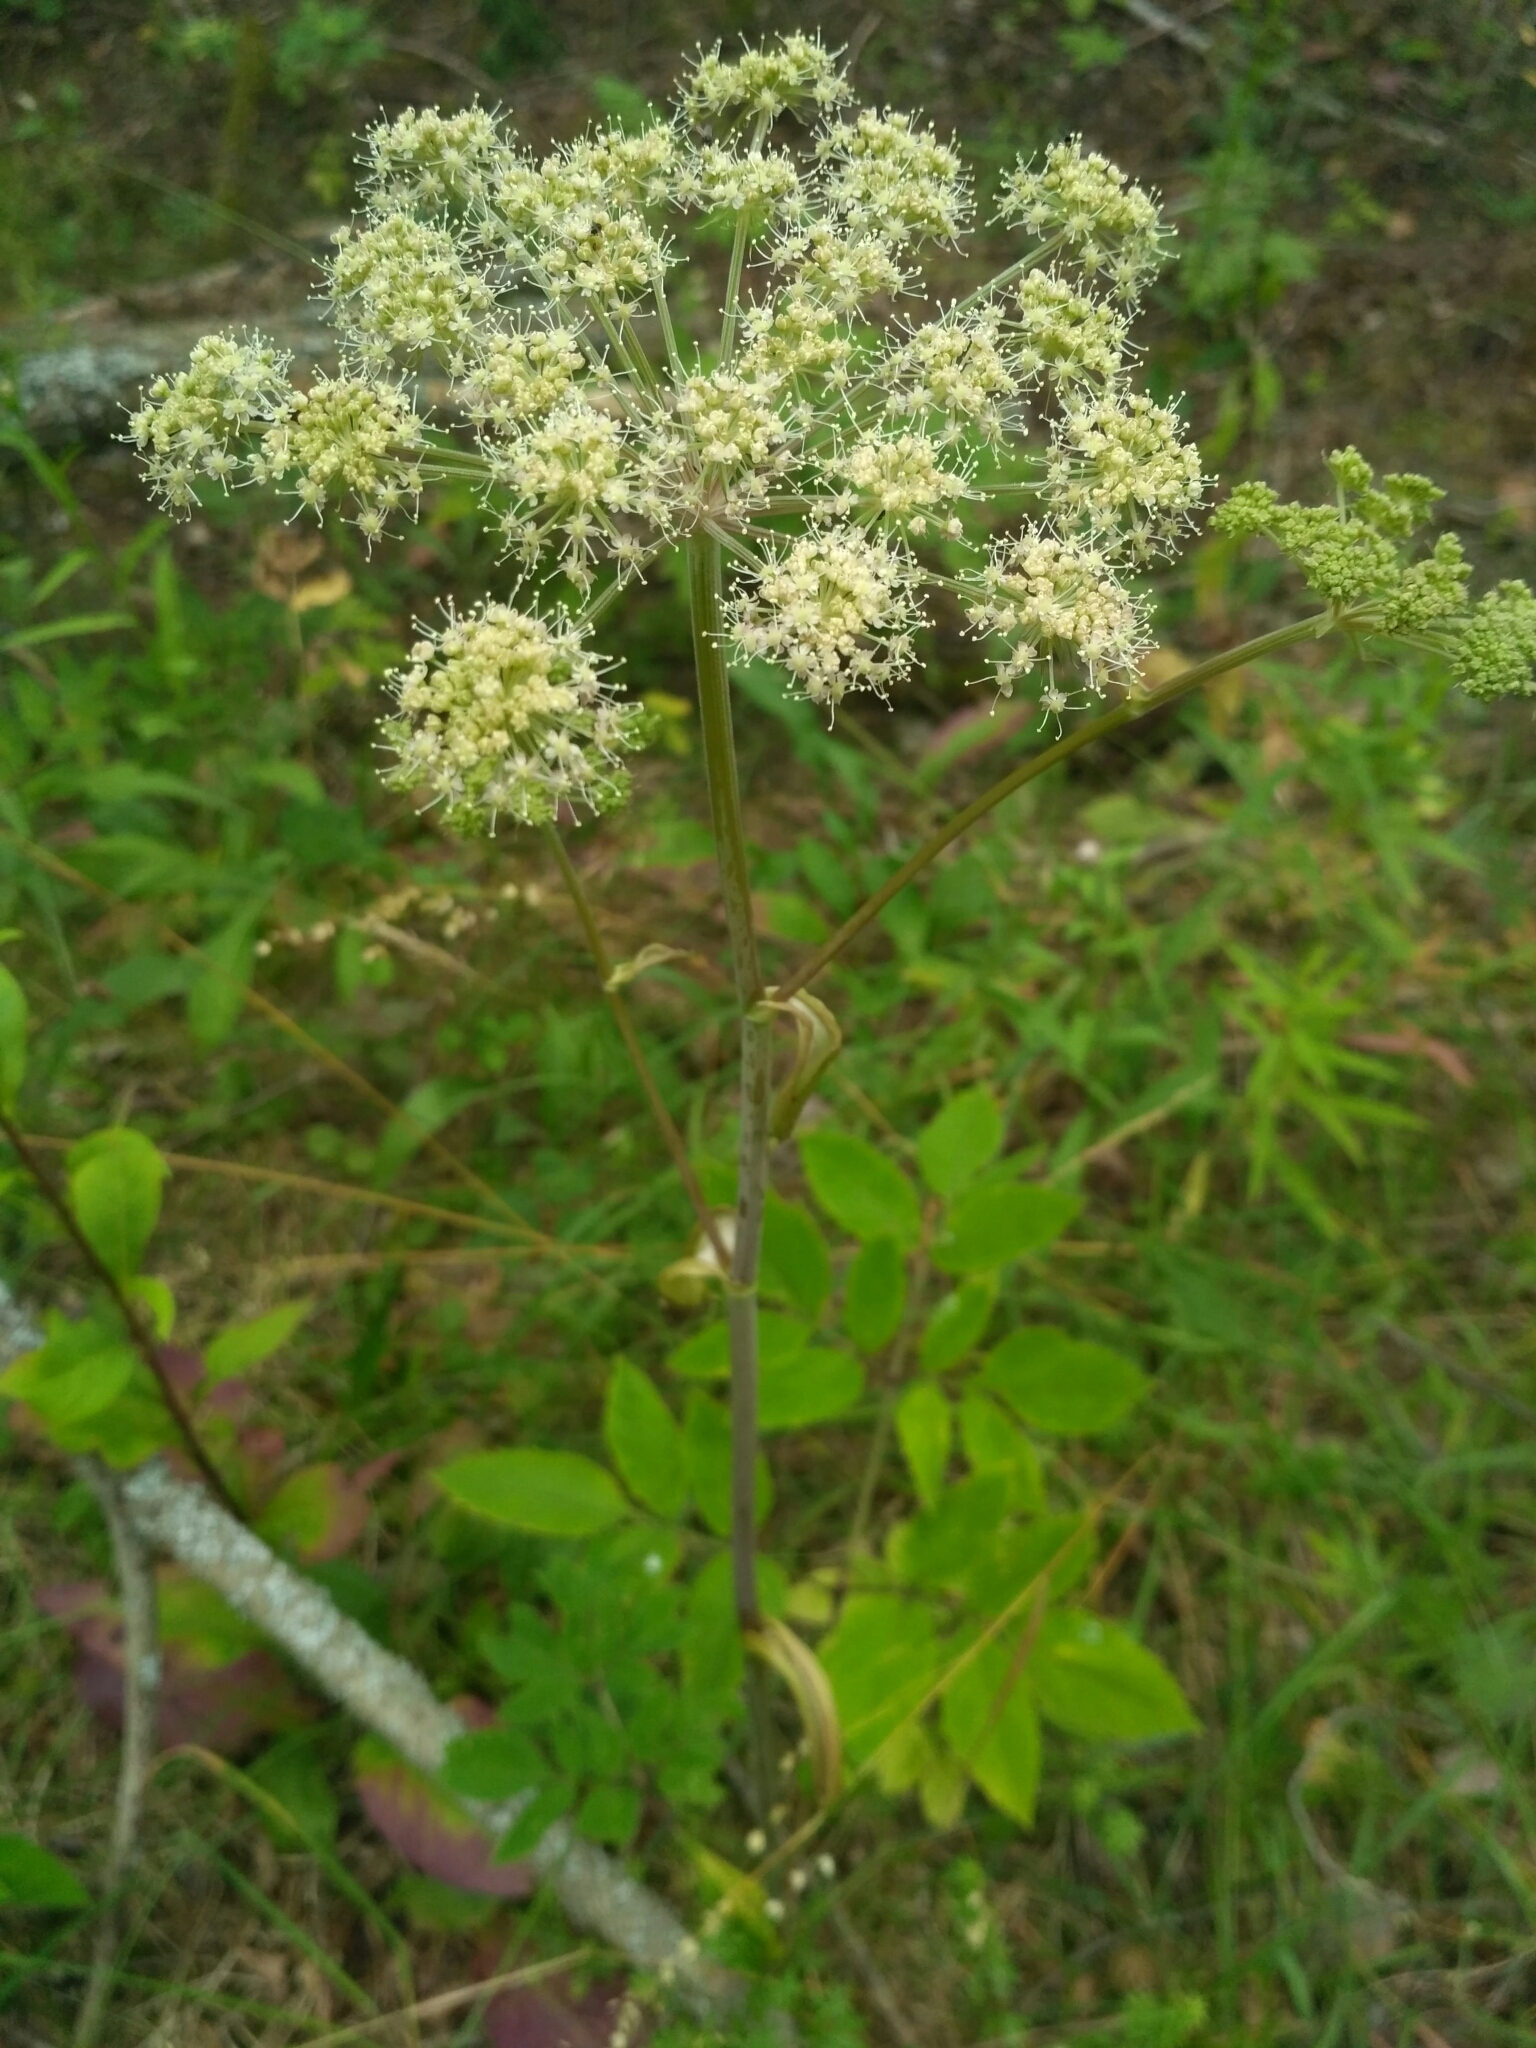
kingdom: Plantae
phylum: Tracheophyta
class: Magnoliopsida
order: Apiales
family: Apiaceae
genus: Angelica
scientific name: Angelica sylvestris
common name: Wild angelica
